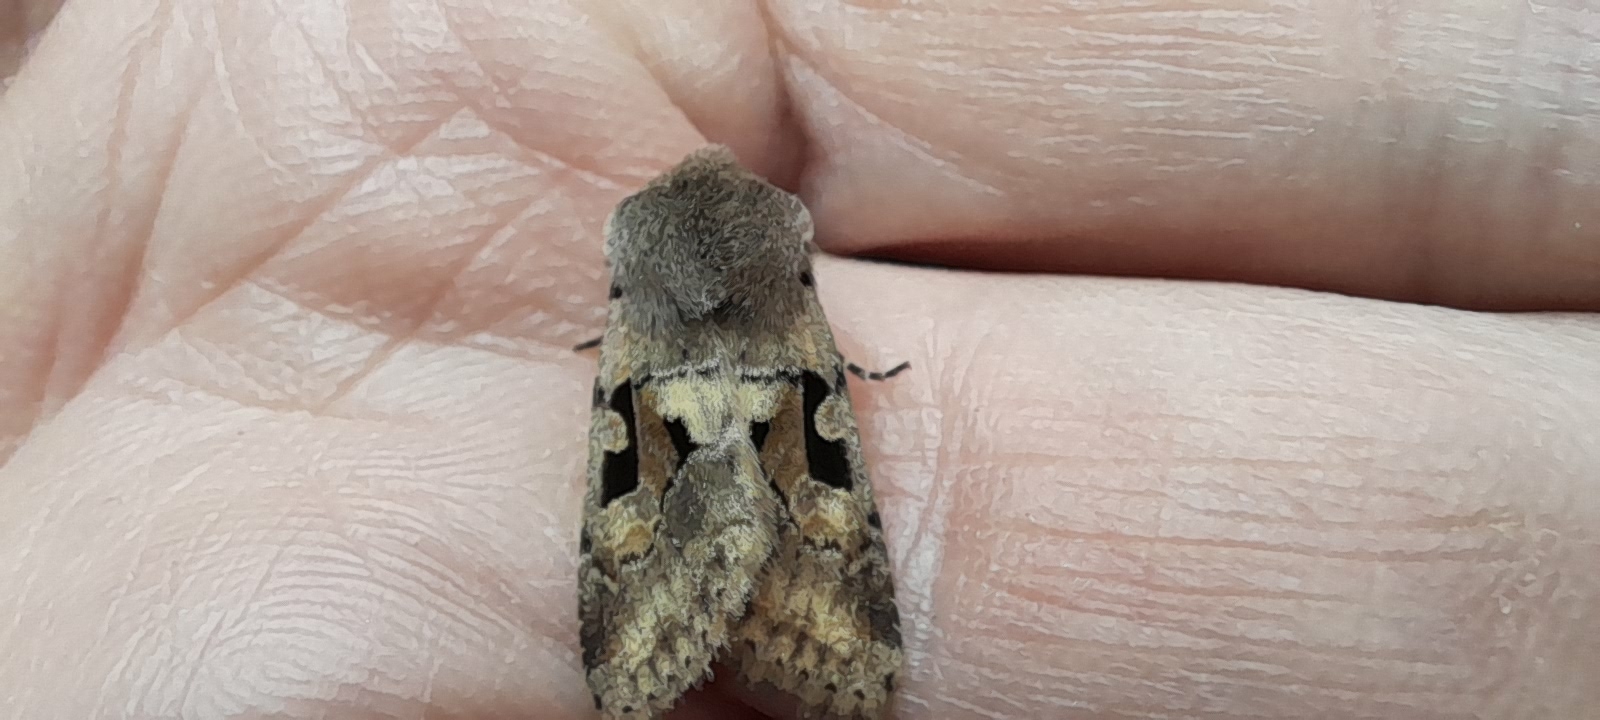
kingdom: Animalia
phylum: Arthropoda
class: Insecta
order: Lepidoptera
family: Noctuidae
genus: Orthosia
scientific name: Orthosia gothica
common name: Hebrew character
